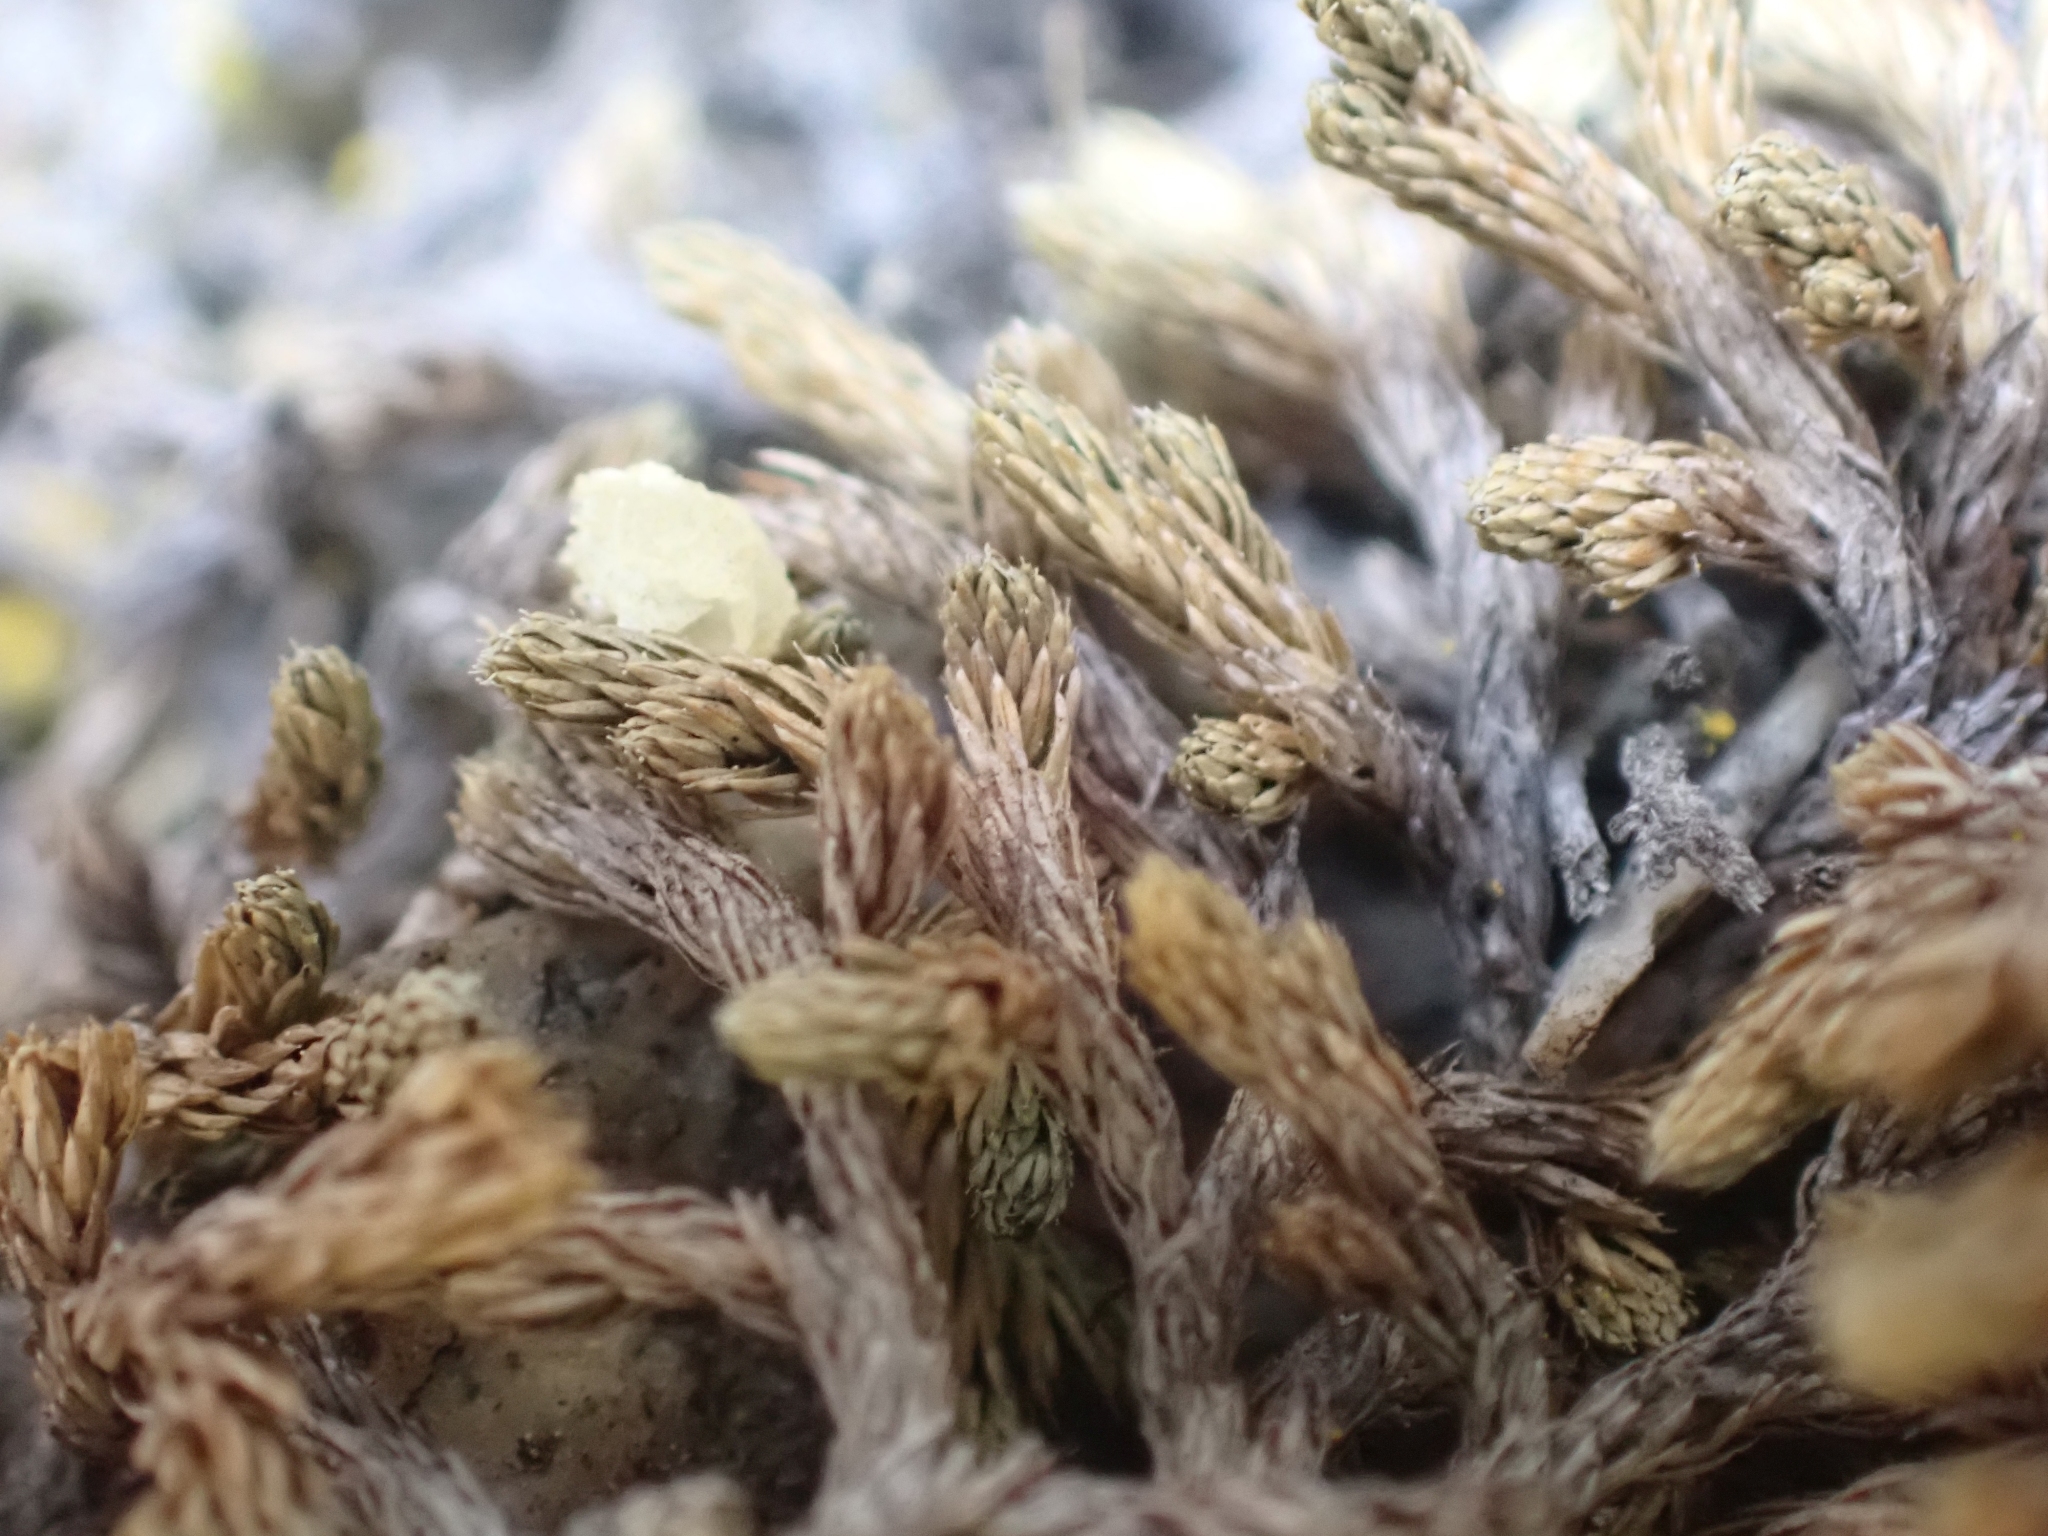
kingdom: Plantae
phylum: Tracheophyta
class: Lycopodiopsida
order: Selaginellales
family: Selaginellaceae
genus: Selaginella
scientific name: Selaginella wallacei
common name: Wallace's selaginella
